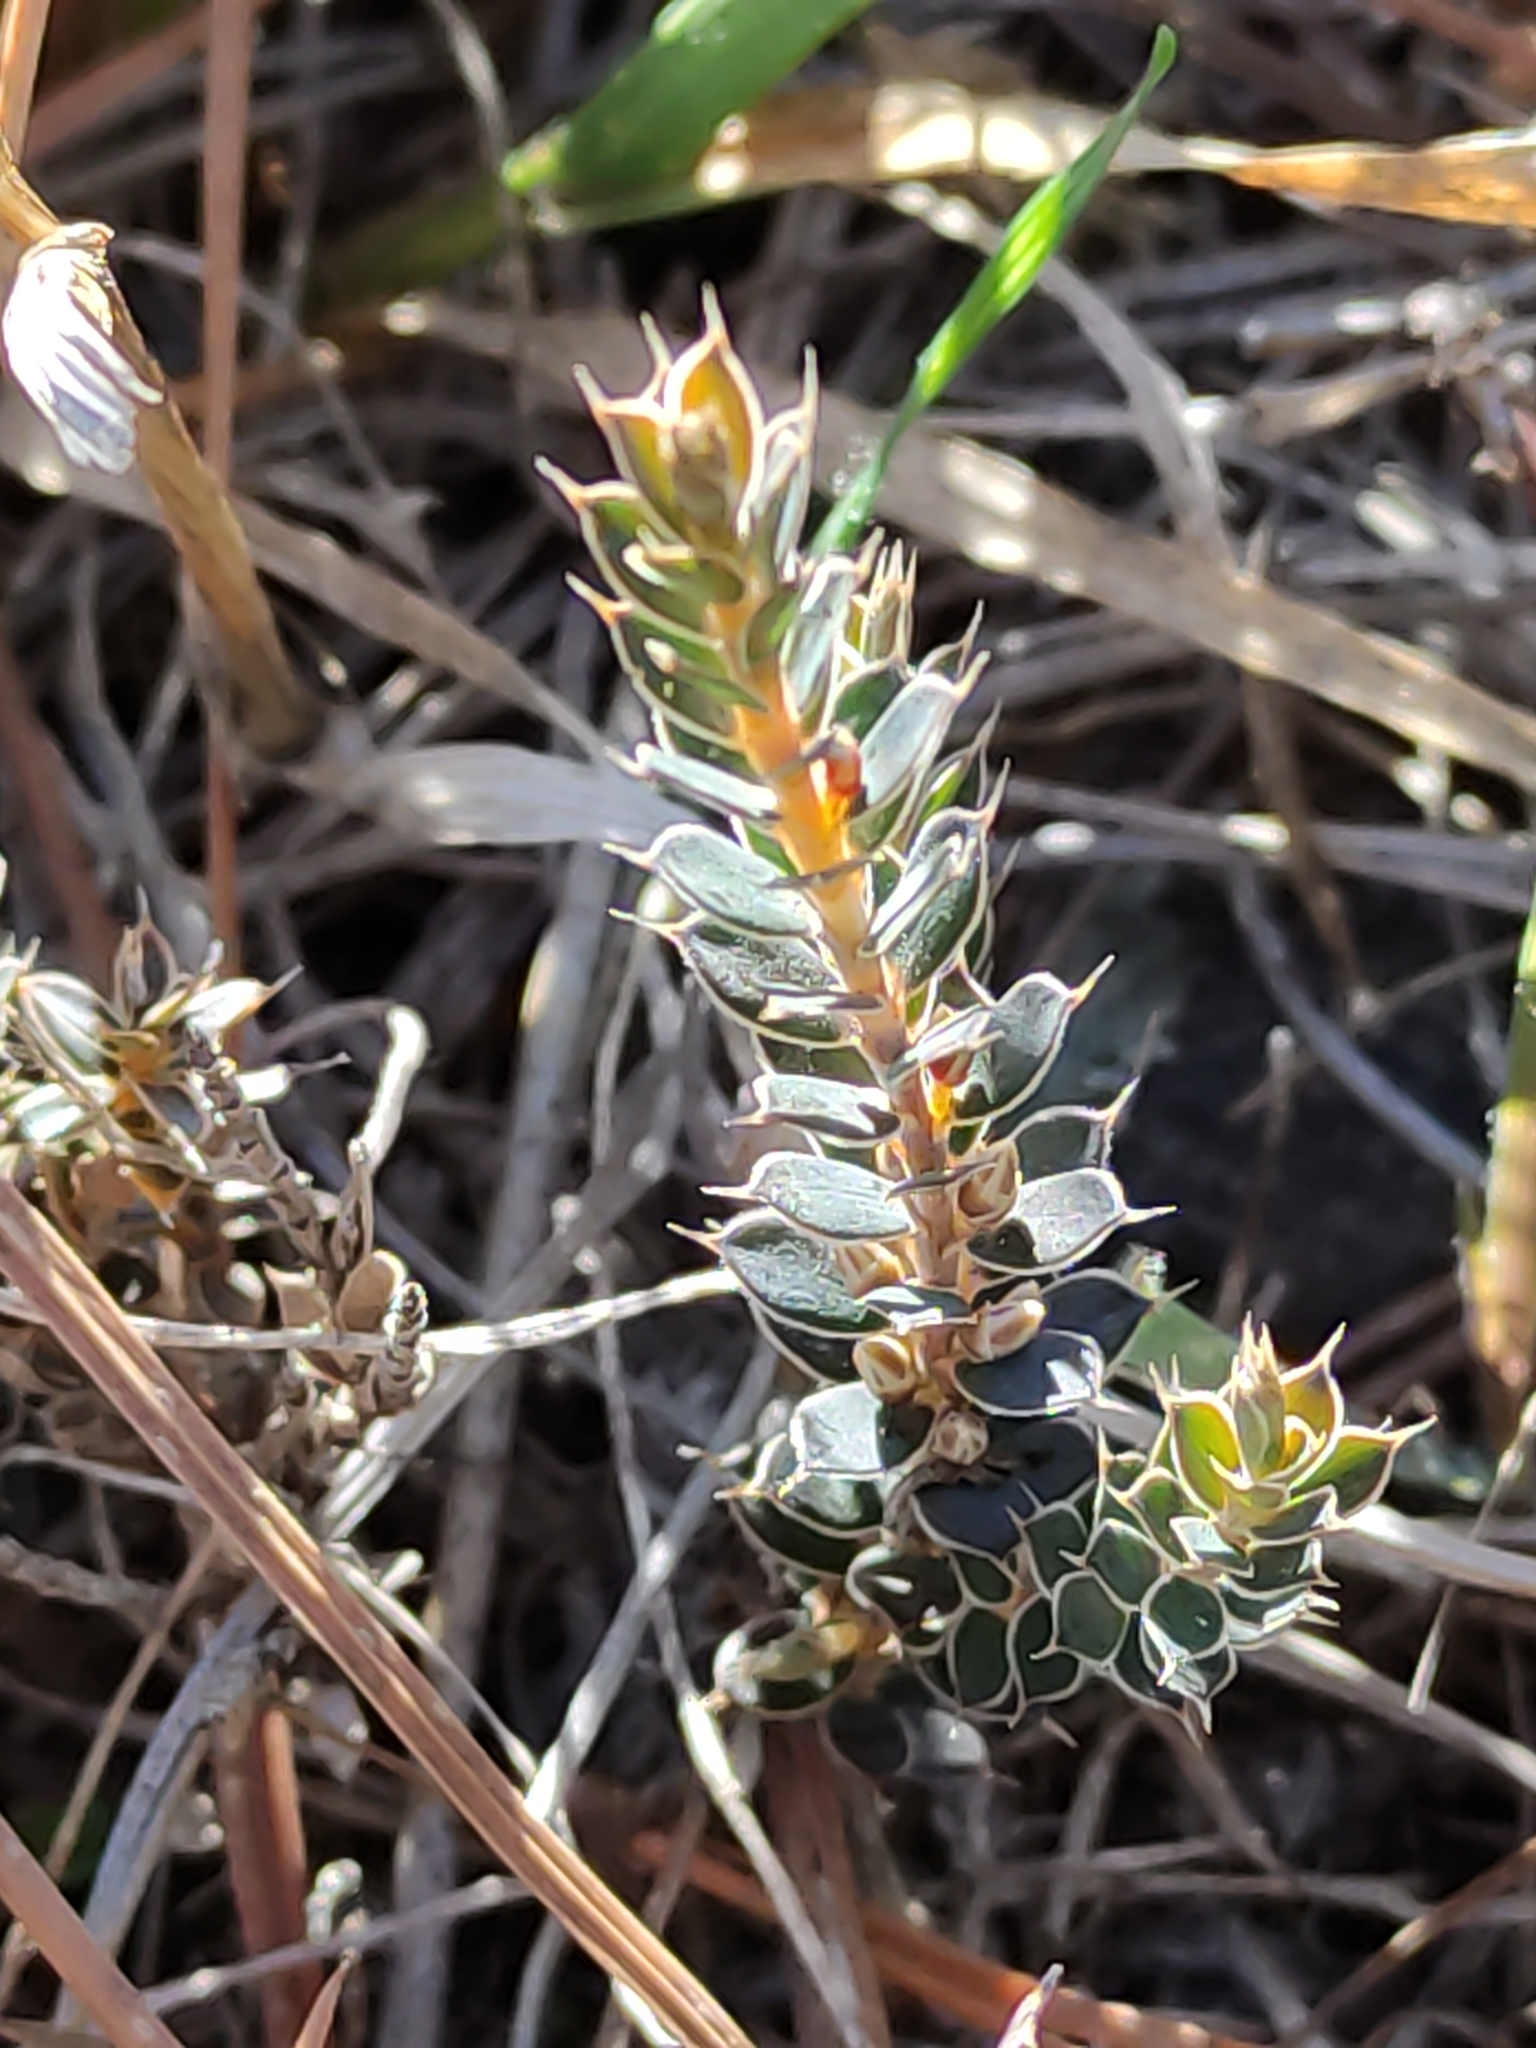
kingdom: Plantae
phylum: Tracheophyta
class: Magnoliopsida
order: Ericales
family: Ericaceae
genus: Styphelia
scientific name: Styphelia nesophila
